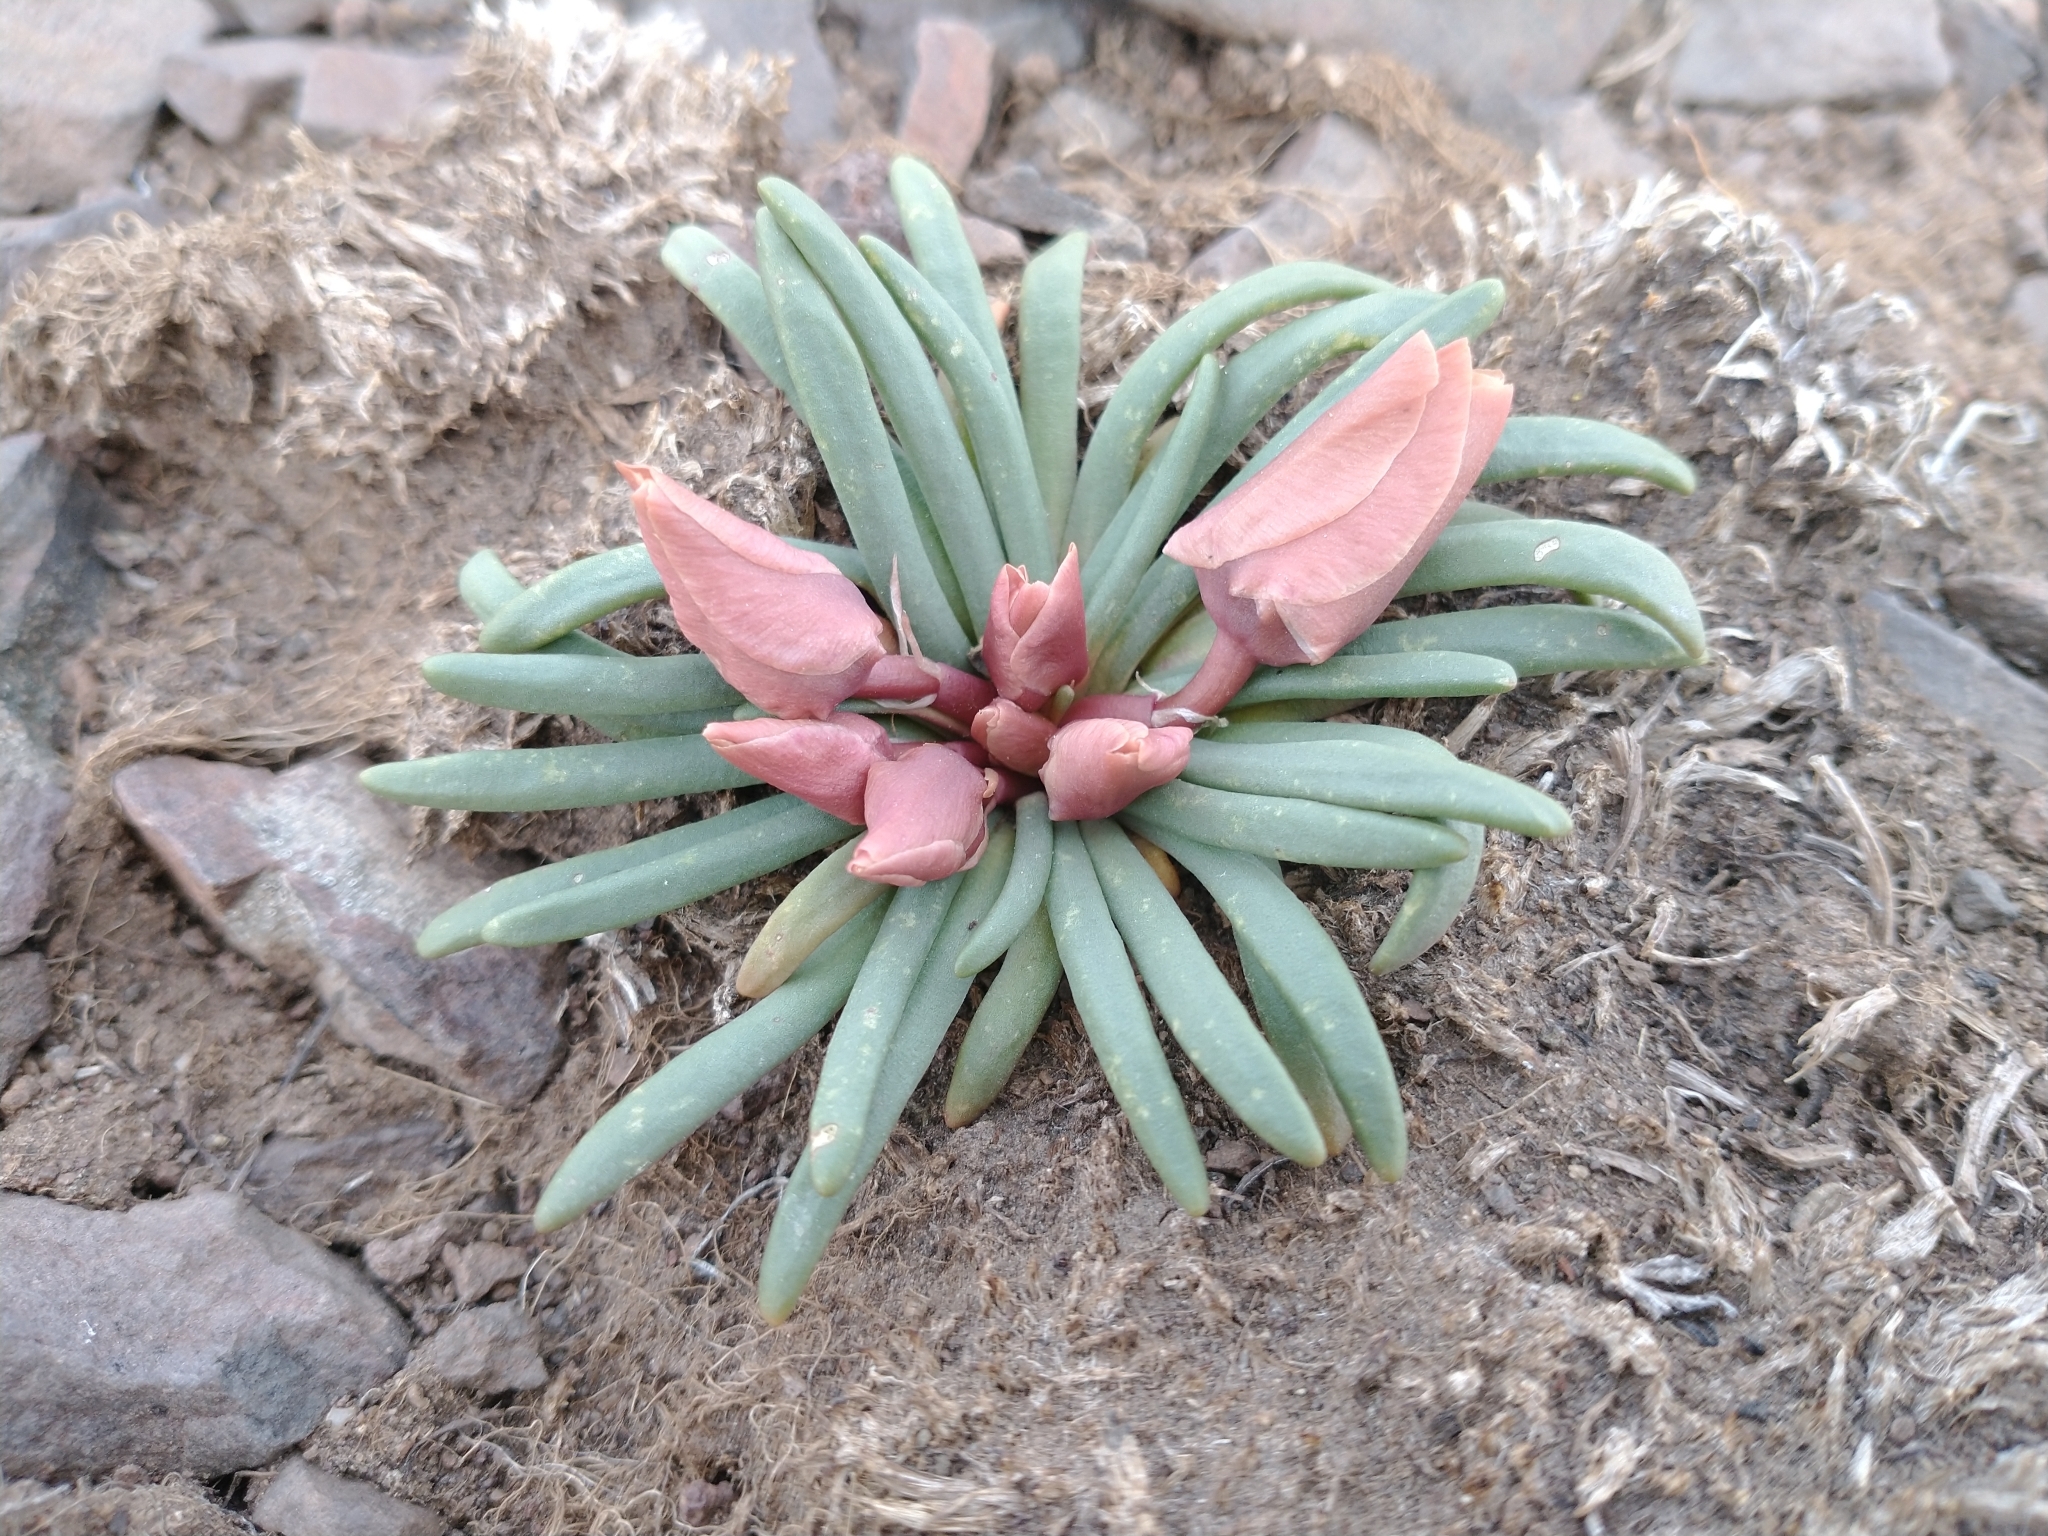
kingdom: Plantae
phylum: Tracheophyta
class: Magnoliopsida
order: Caryophyllales
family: Montiaceae
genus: Lewisia
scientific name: Lewisia rediviva
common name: Bitter-root
